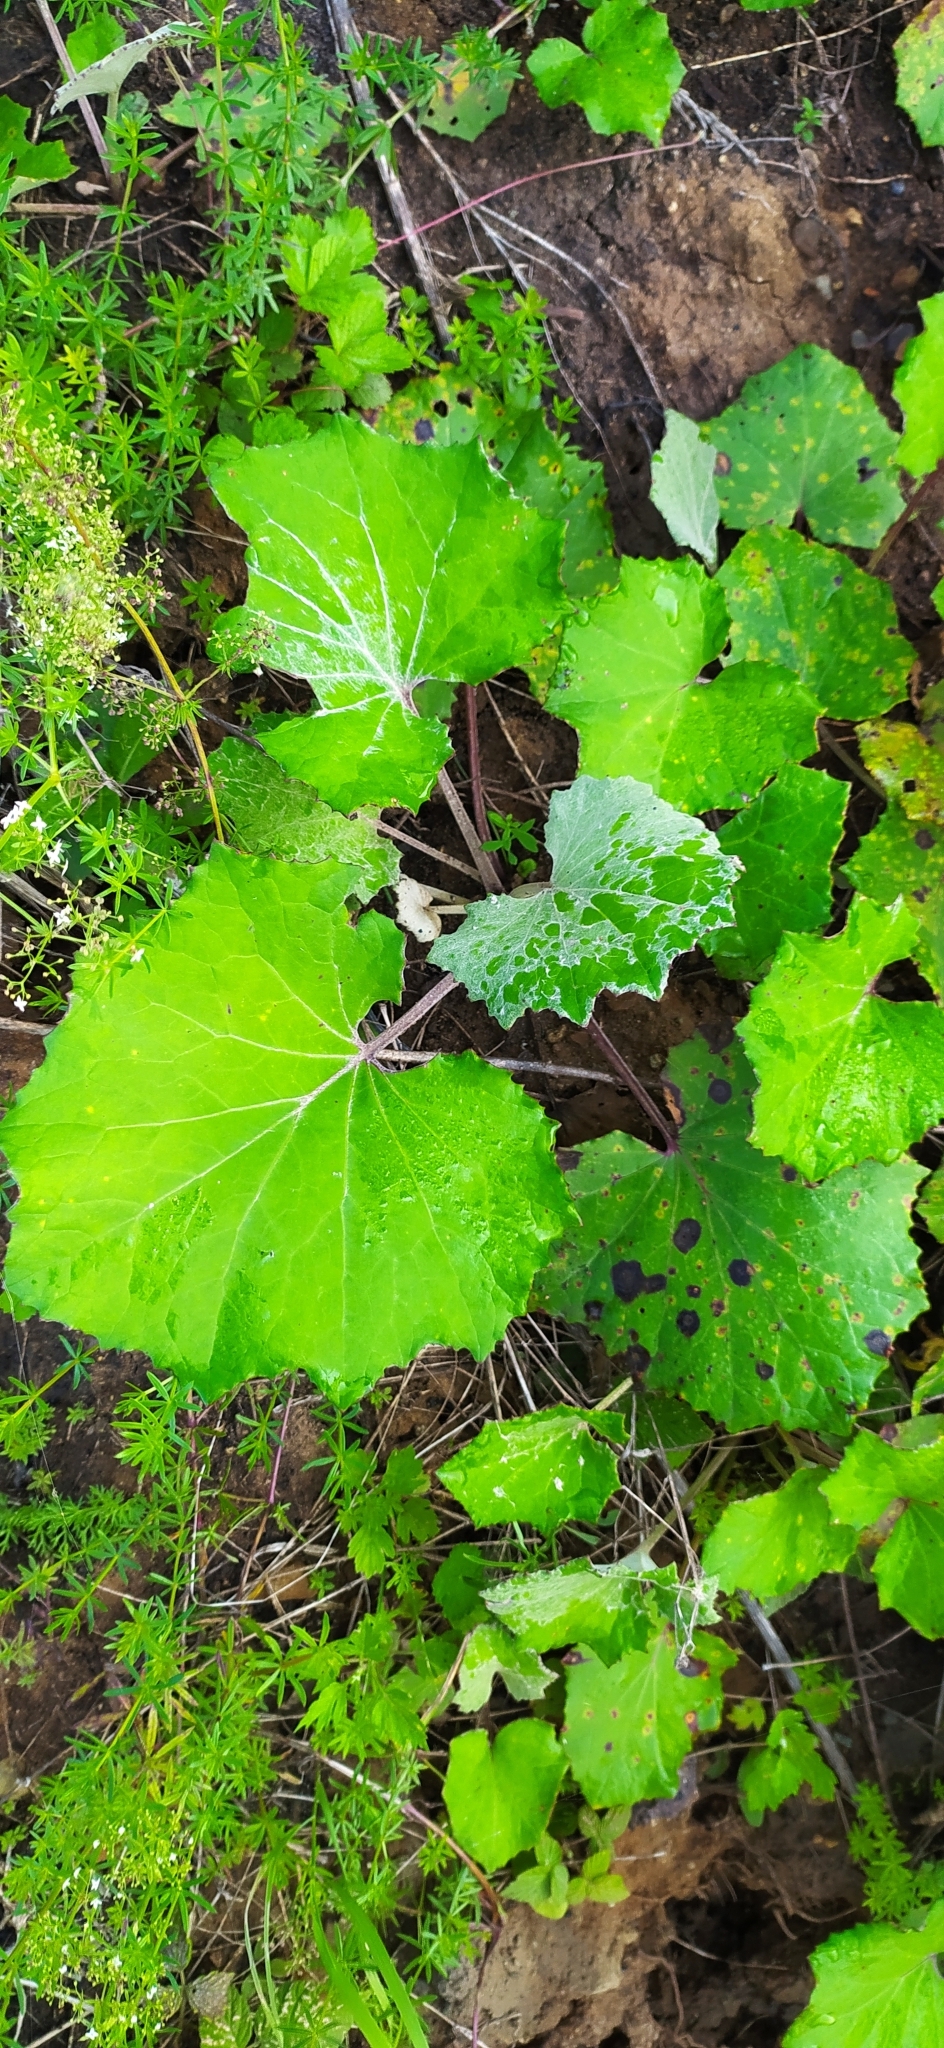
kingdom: Plantae
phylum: Tracheophyta
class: Magnoliopsida
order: Asterales
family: Asteraceae
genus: Tussilago
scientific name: Tussilago farfara
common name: Coltsfoot
